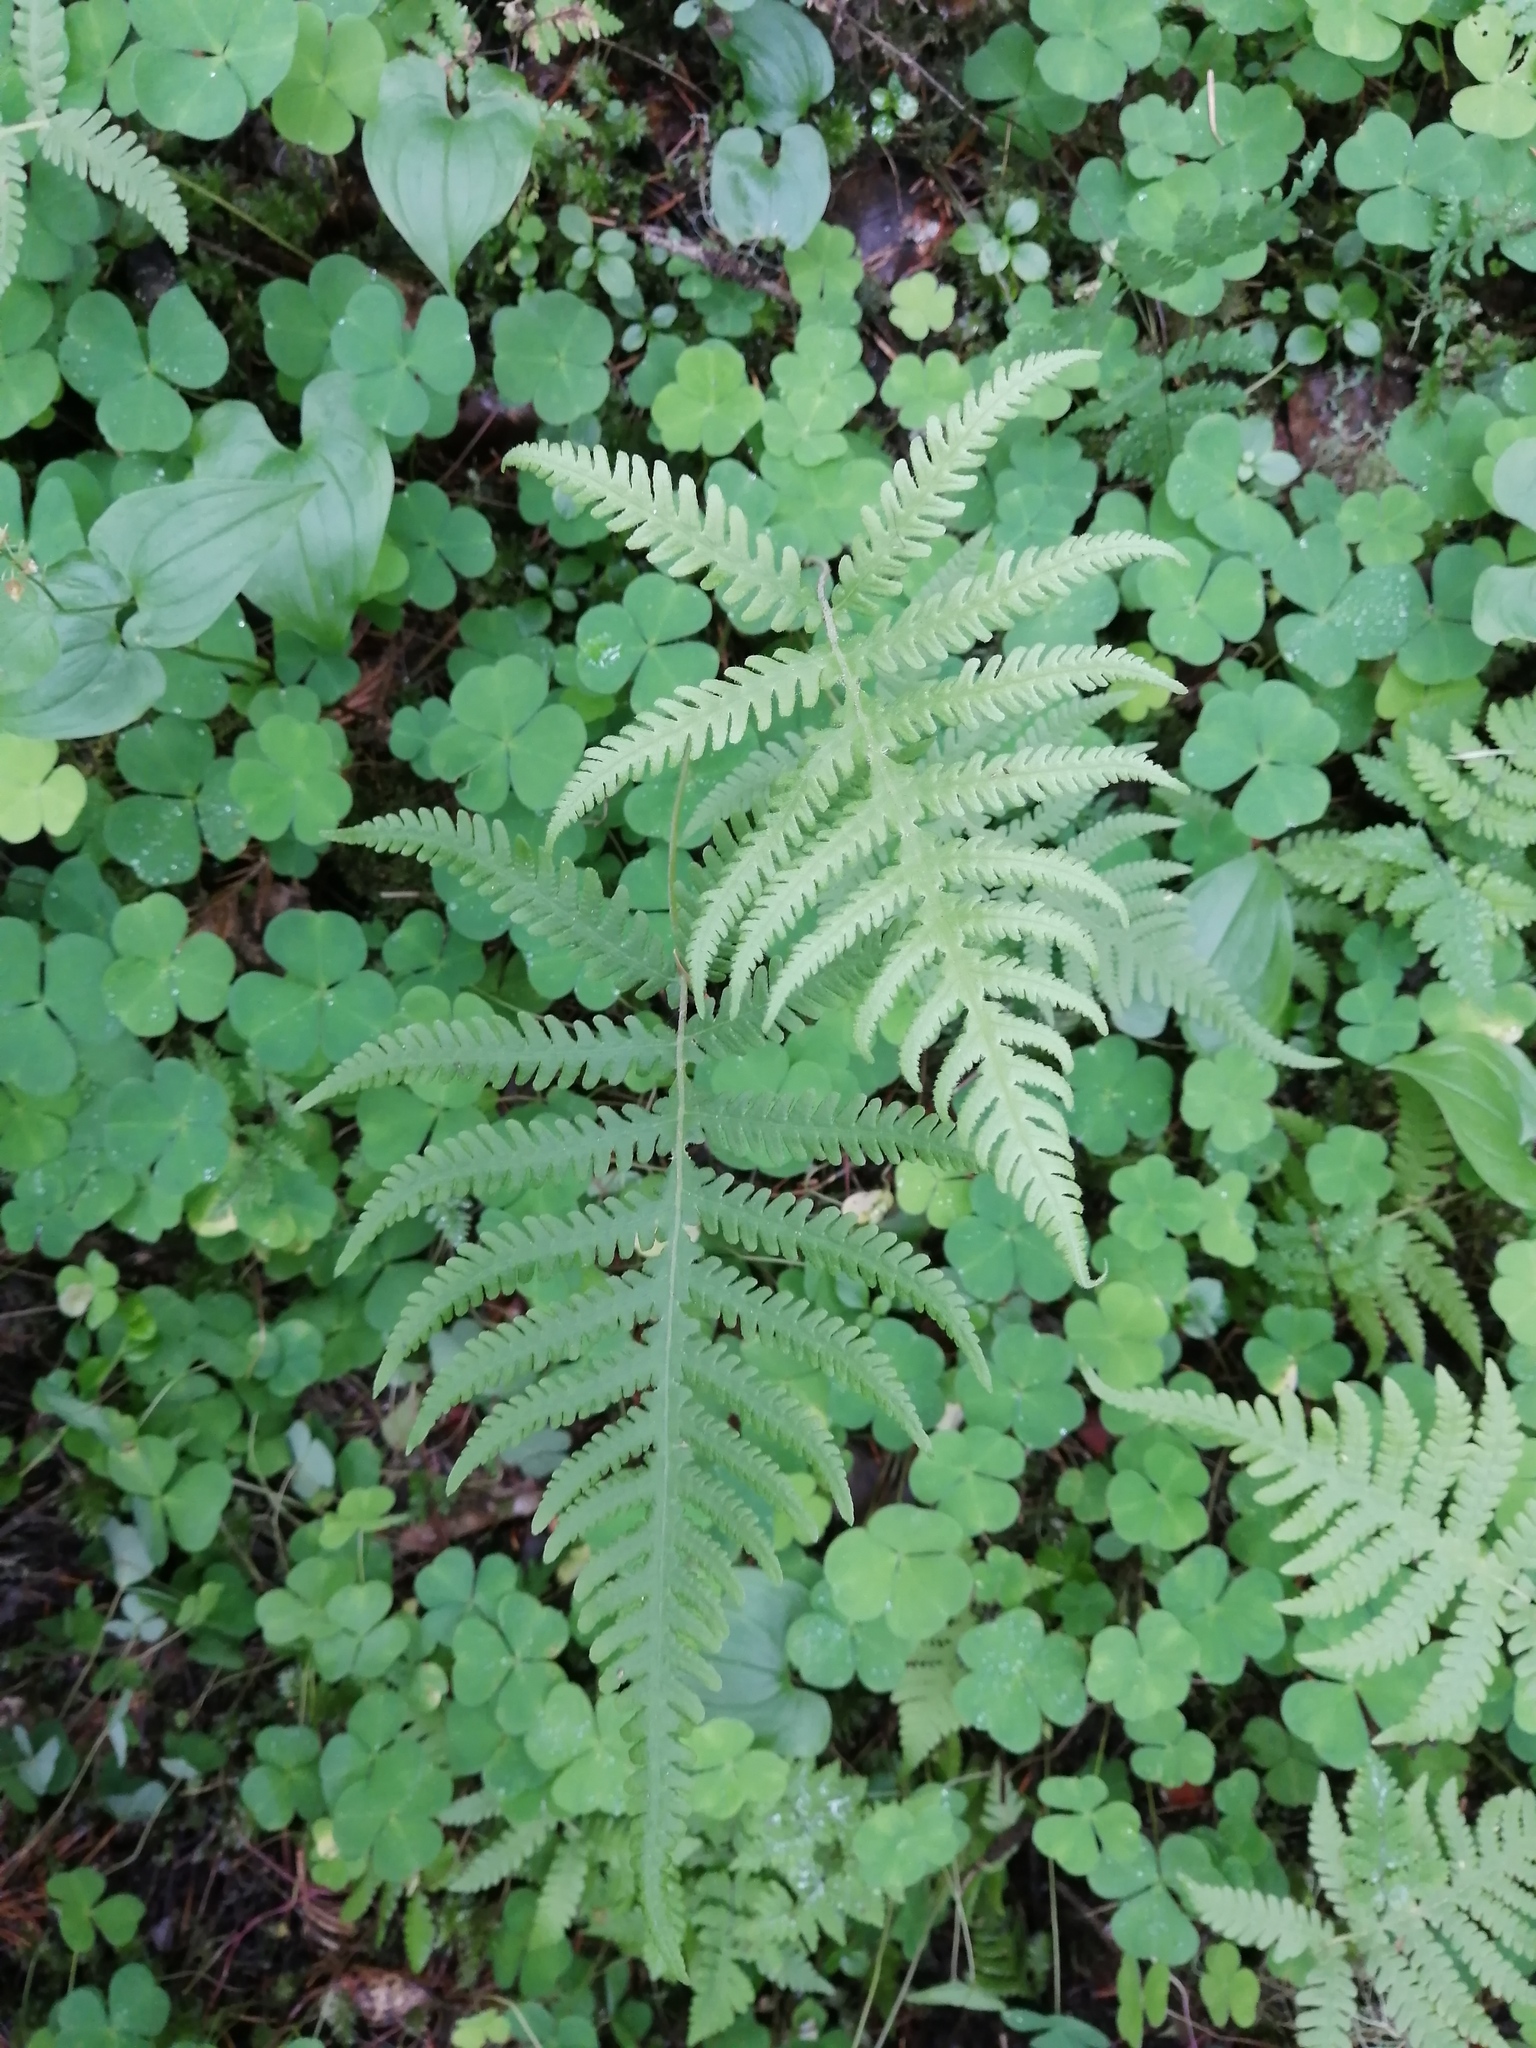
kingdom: Plantae
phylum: Tracheophyta
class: Polypodiopsida
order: Polypodiales
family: Thelypteridaceae
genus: Phegopteris
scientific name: Phegopteris connectilis
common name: Beech fern
